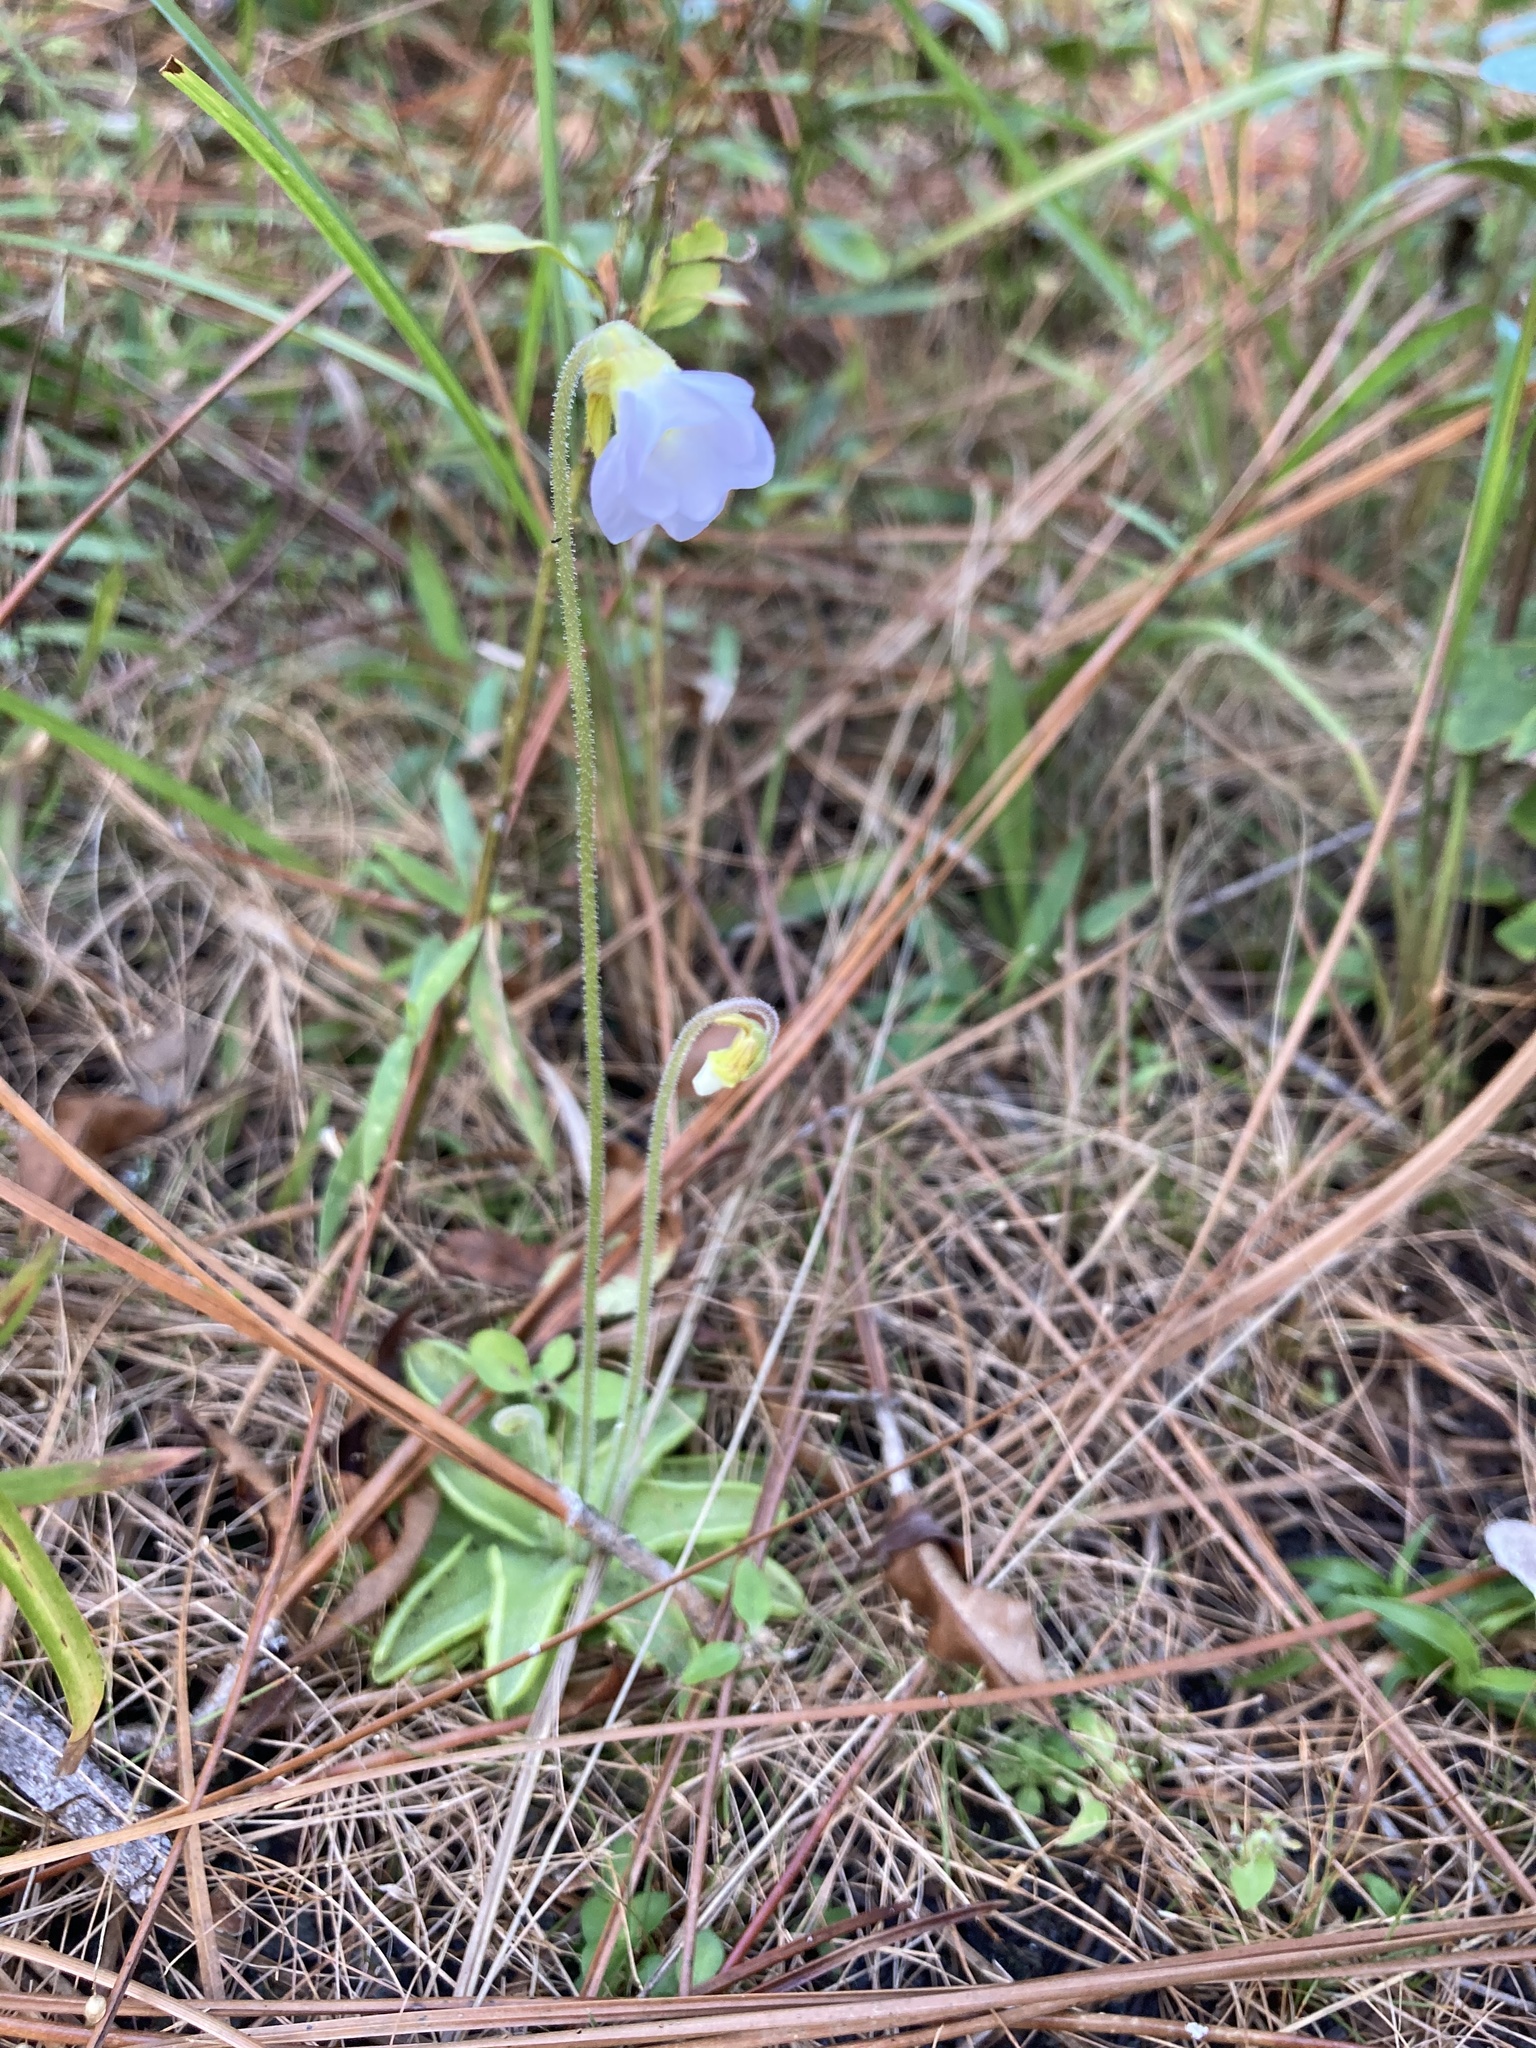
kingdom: Plantae
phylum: Tracheophyta
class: Magnoliopsida
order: Lamiales
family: Lentibulariaceae
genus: Pinguicula
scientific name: Pinguicula pumila
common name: Small butterwort
